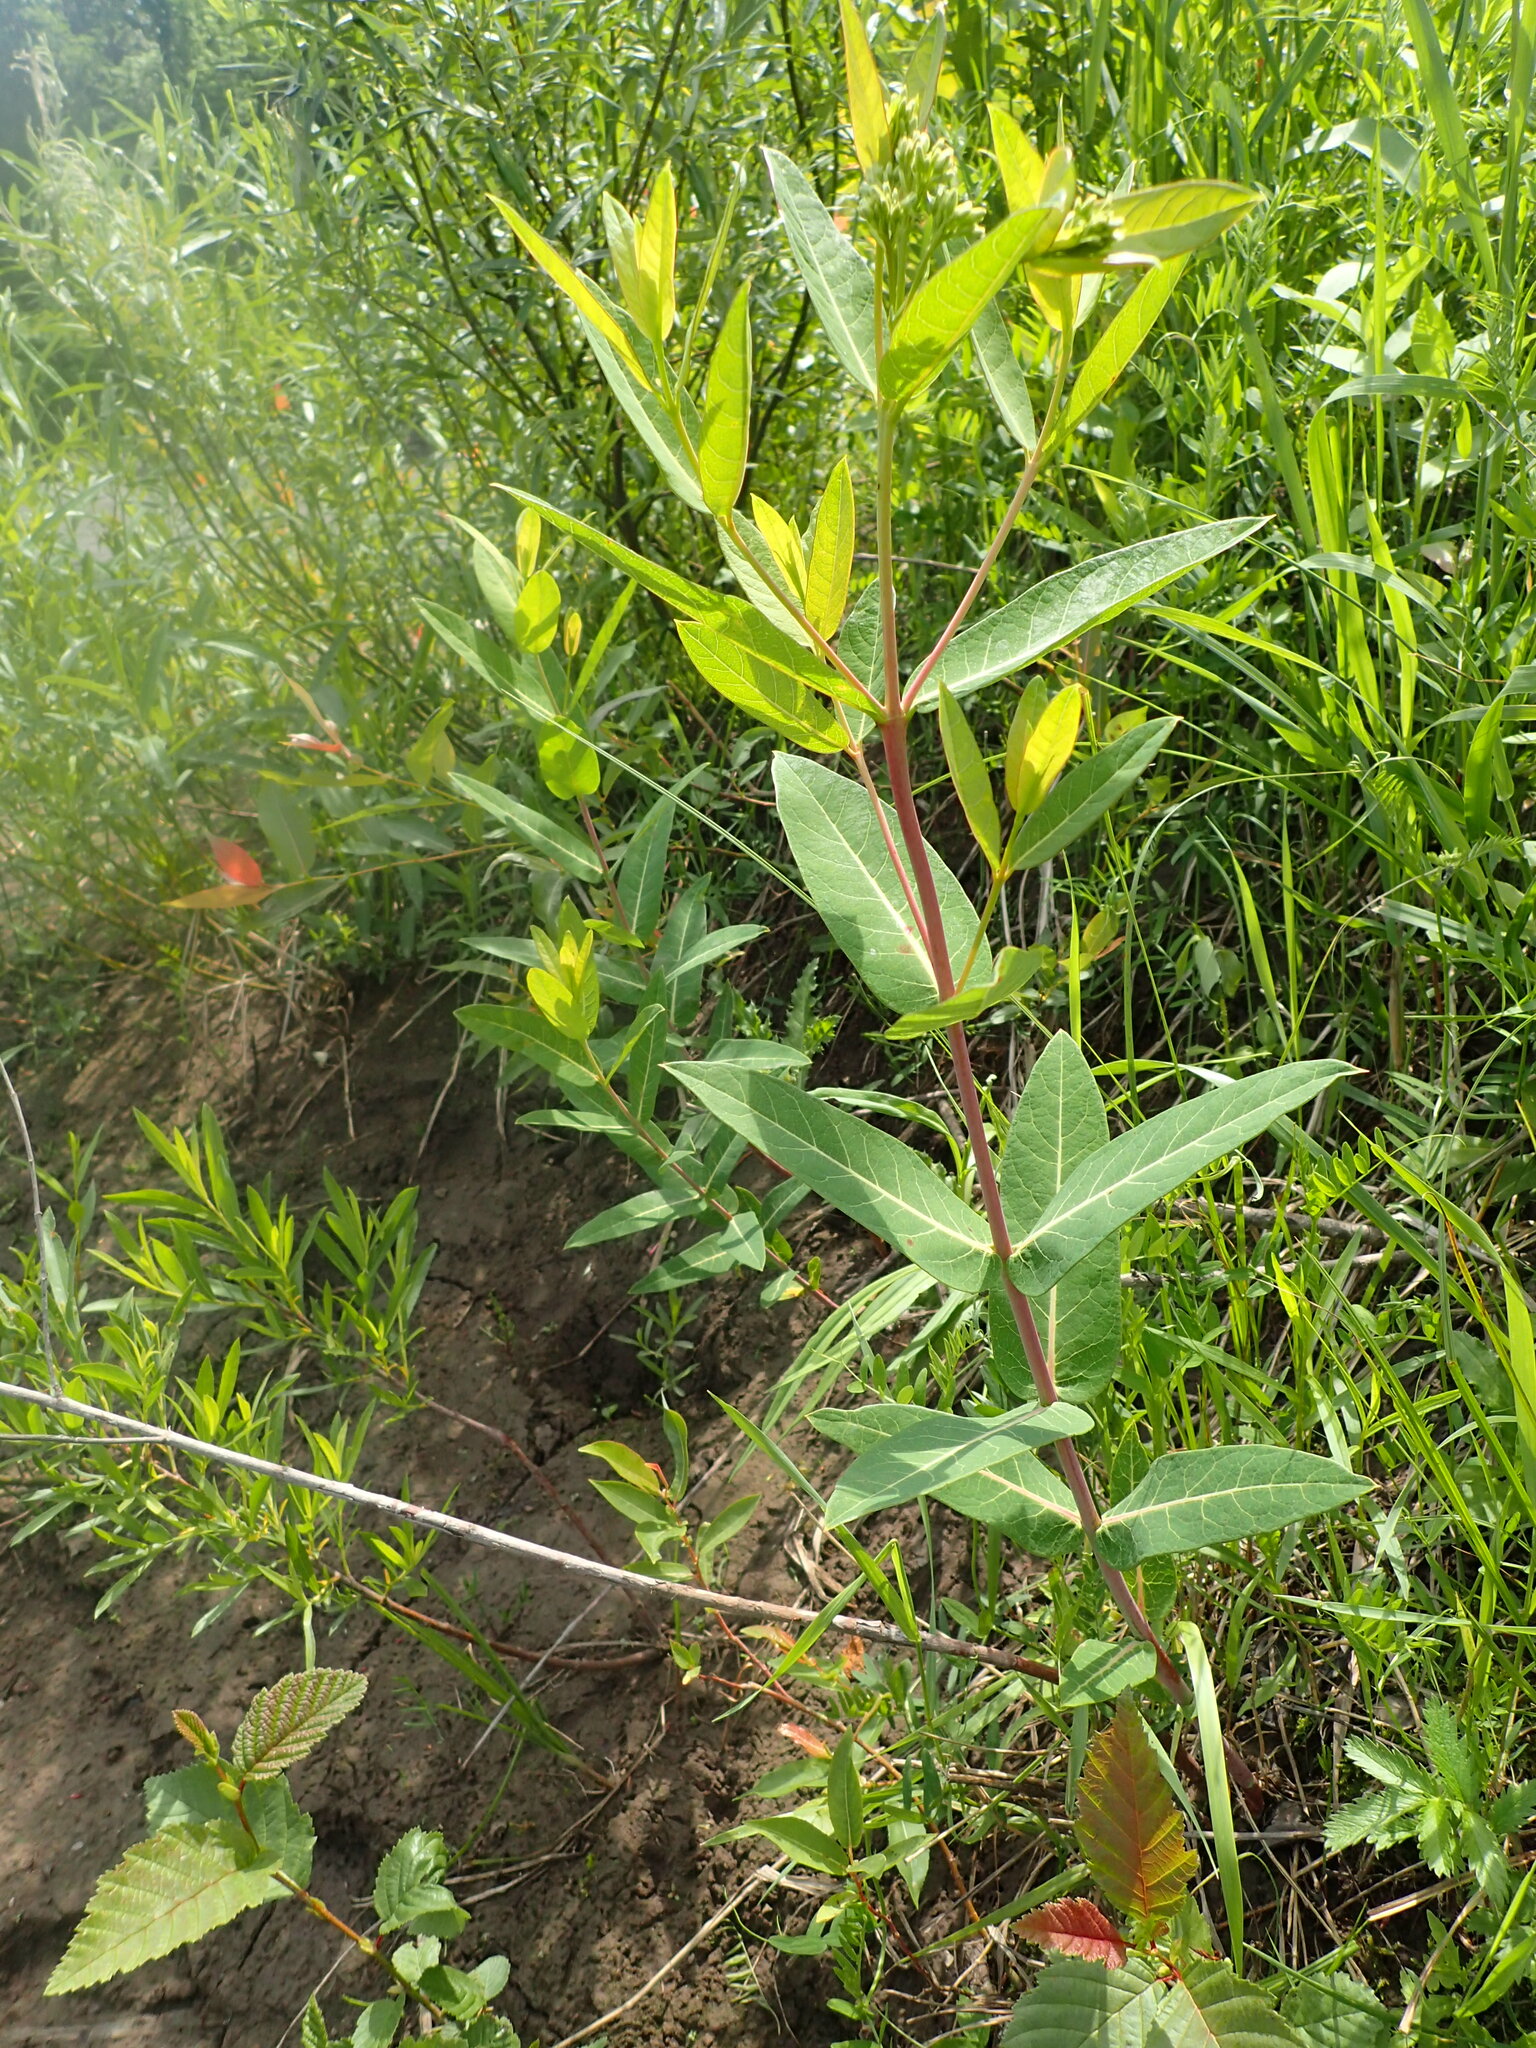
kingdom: Plantae
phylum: Tracheophyta
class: Magnoliopsida
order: Gentianales
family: Apocynaceae
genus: Apocynum
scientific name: Apocynum cannabinum
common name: Hemp dogbane
